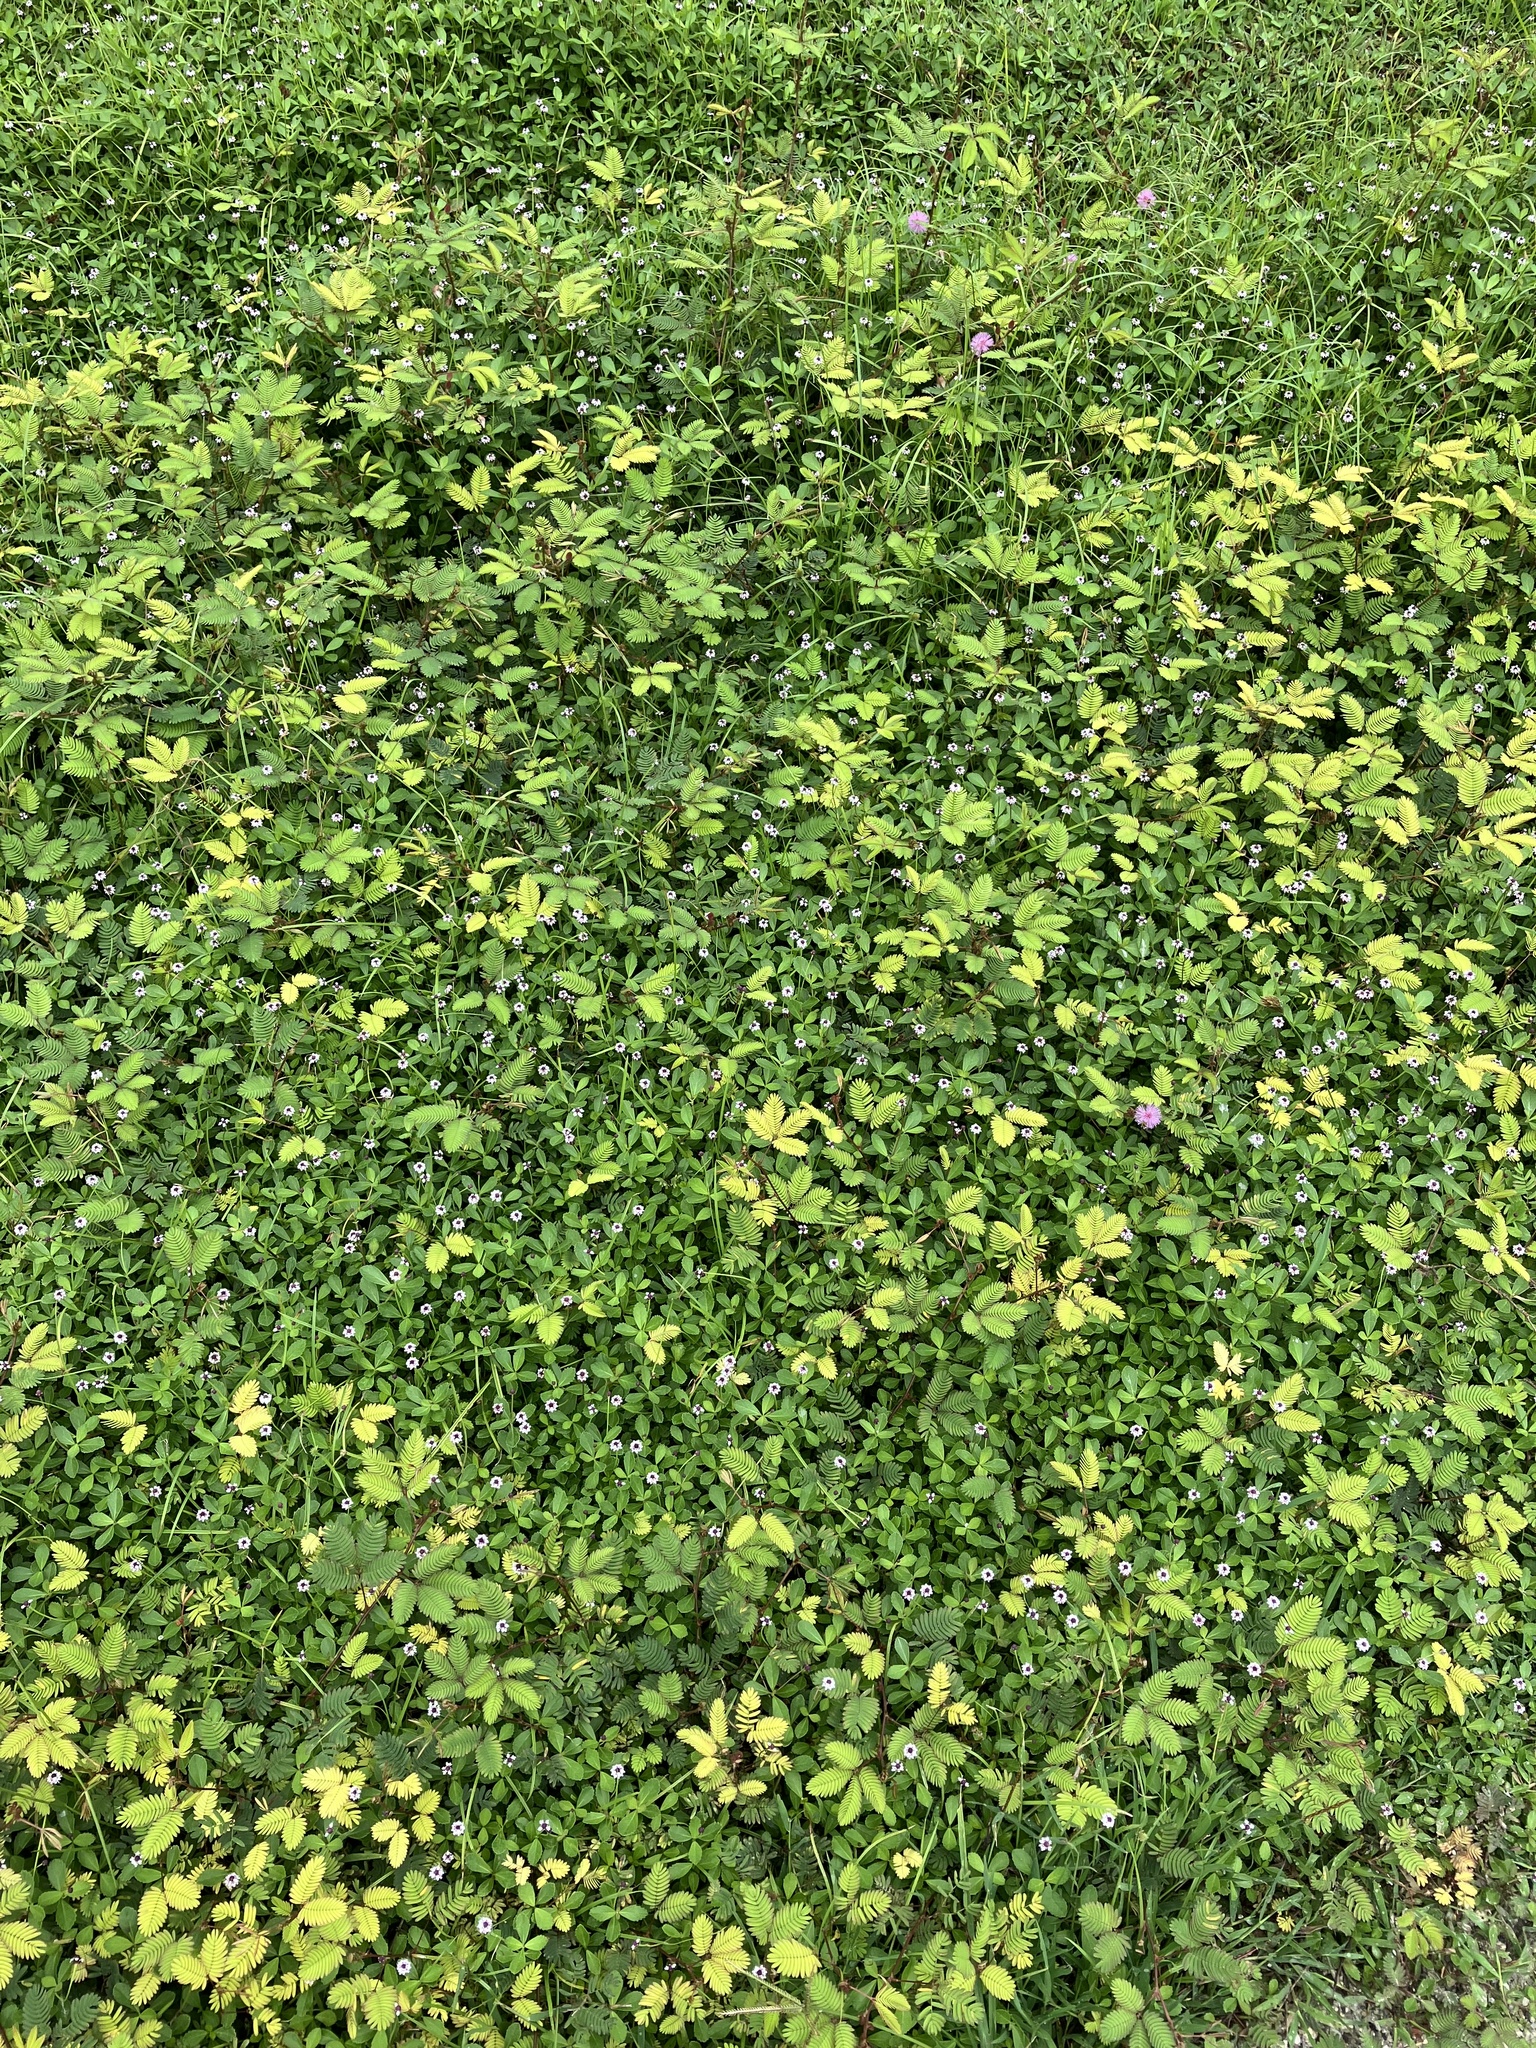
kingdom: Plantae
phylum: Tracheophyta
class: Magnoliopsida
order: Fabales
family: Fabaceae
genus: Mimosa
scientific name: Mimosa pudica
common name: Sensitive plant
